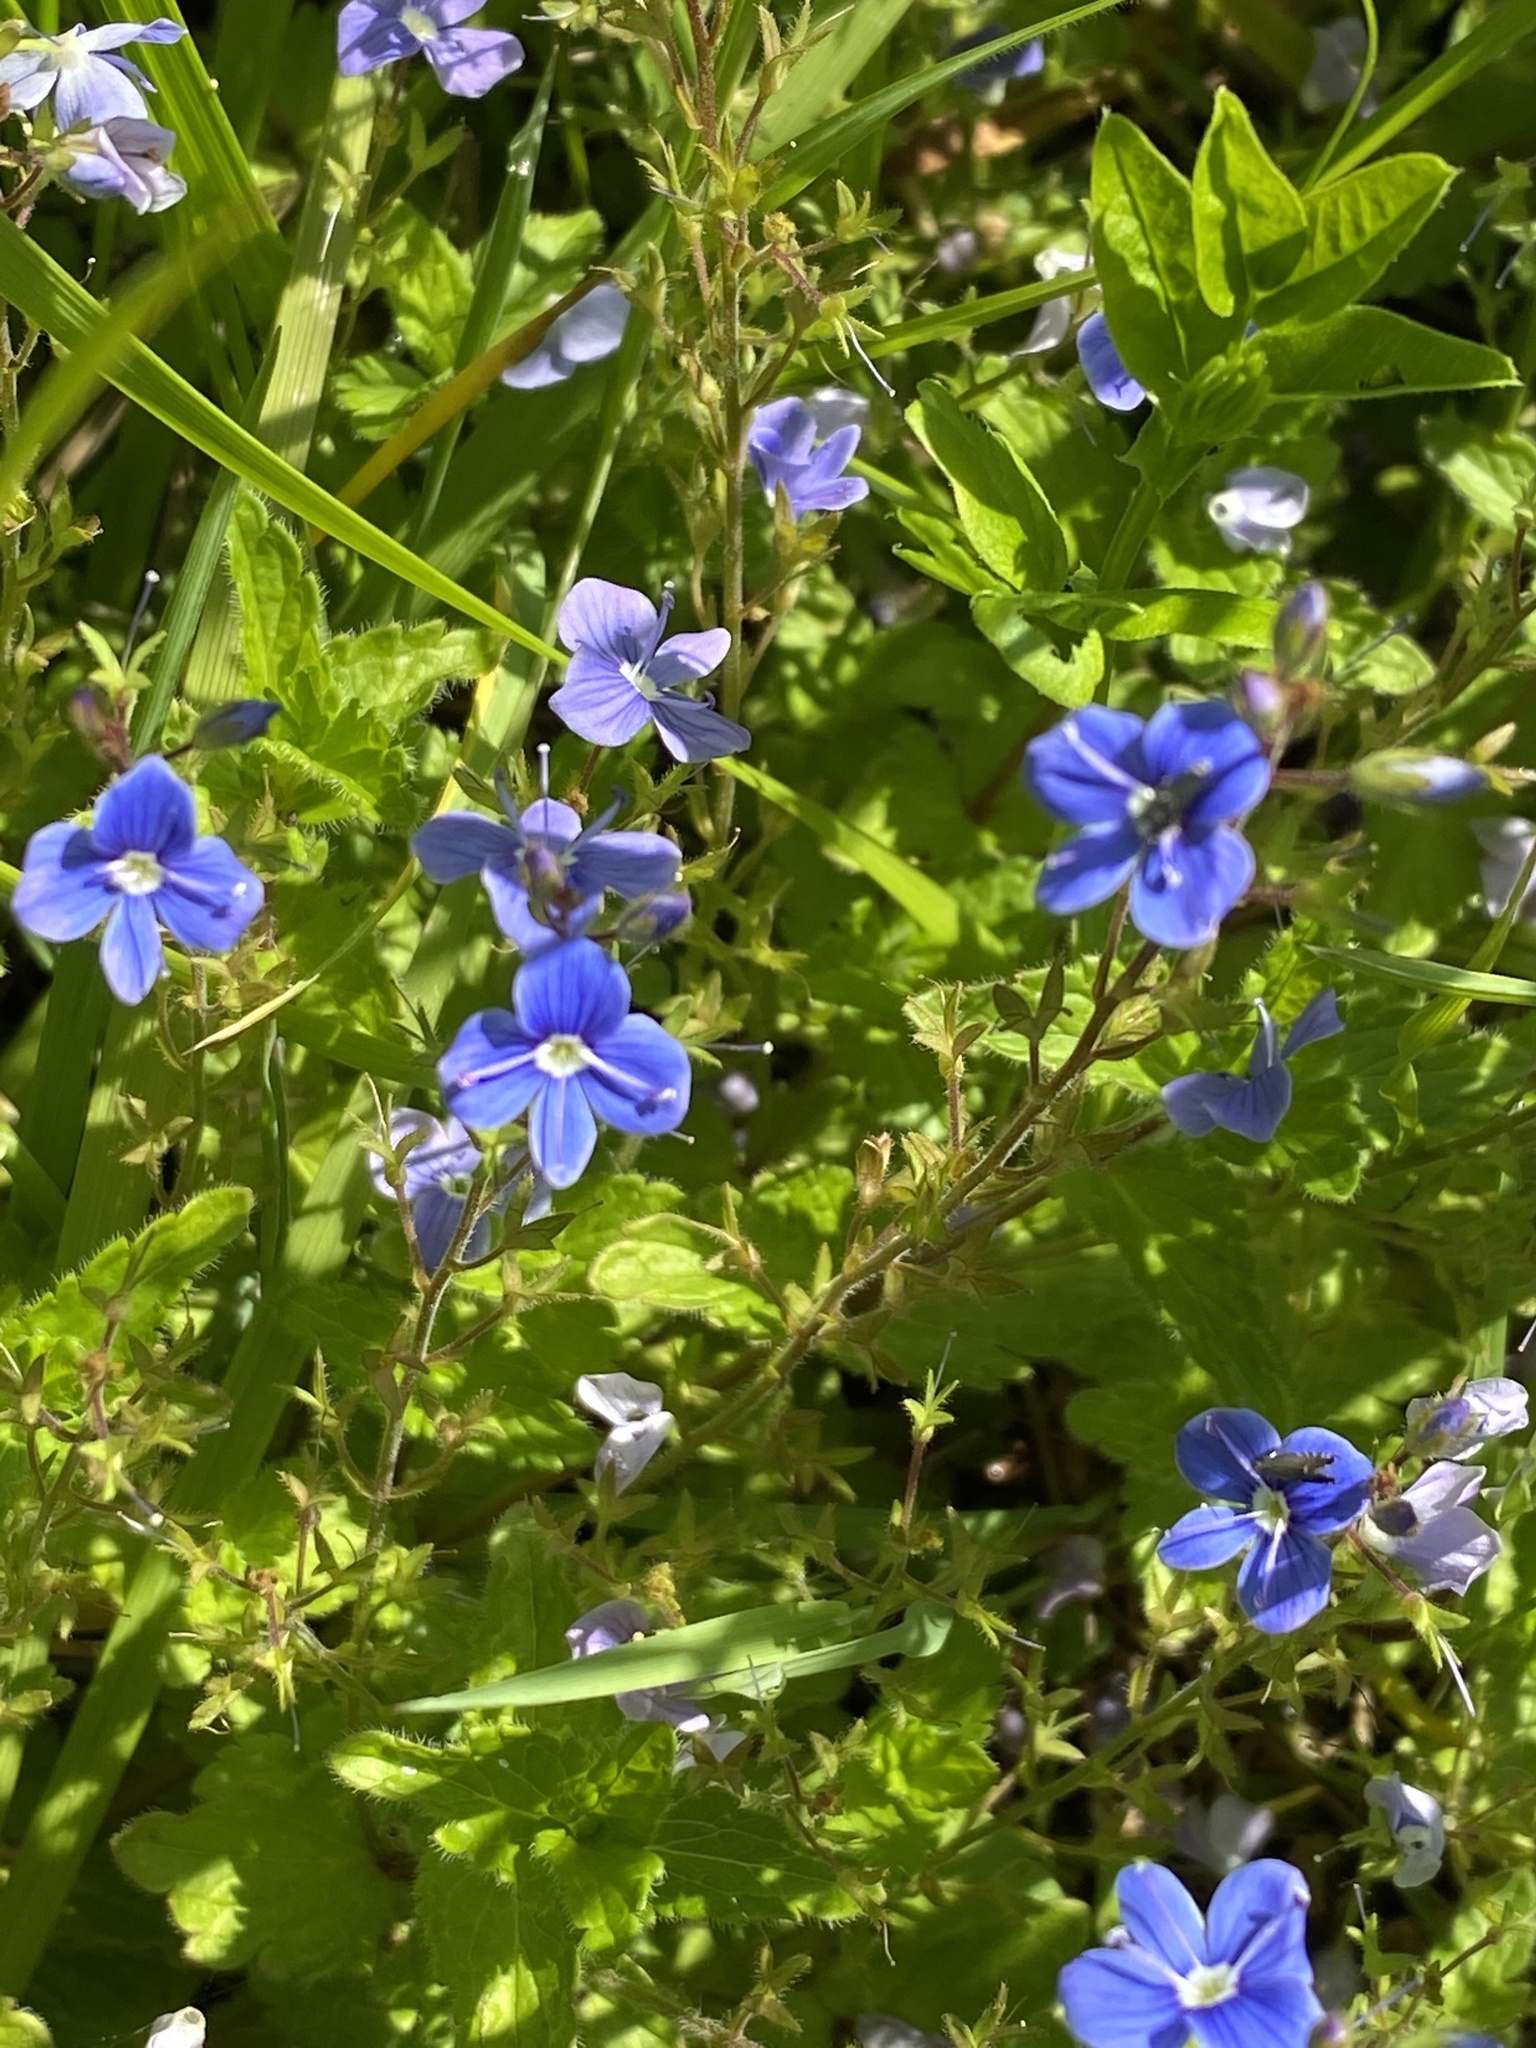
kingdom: Plantae
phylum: Tracheophyta
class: Magnoliopsida
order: Lamiales
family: Plantaginaceae
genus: Veronica
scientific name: Veronica chamaedrys
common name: Germander speedwell
